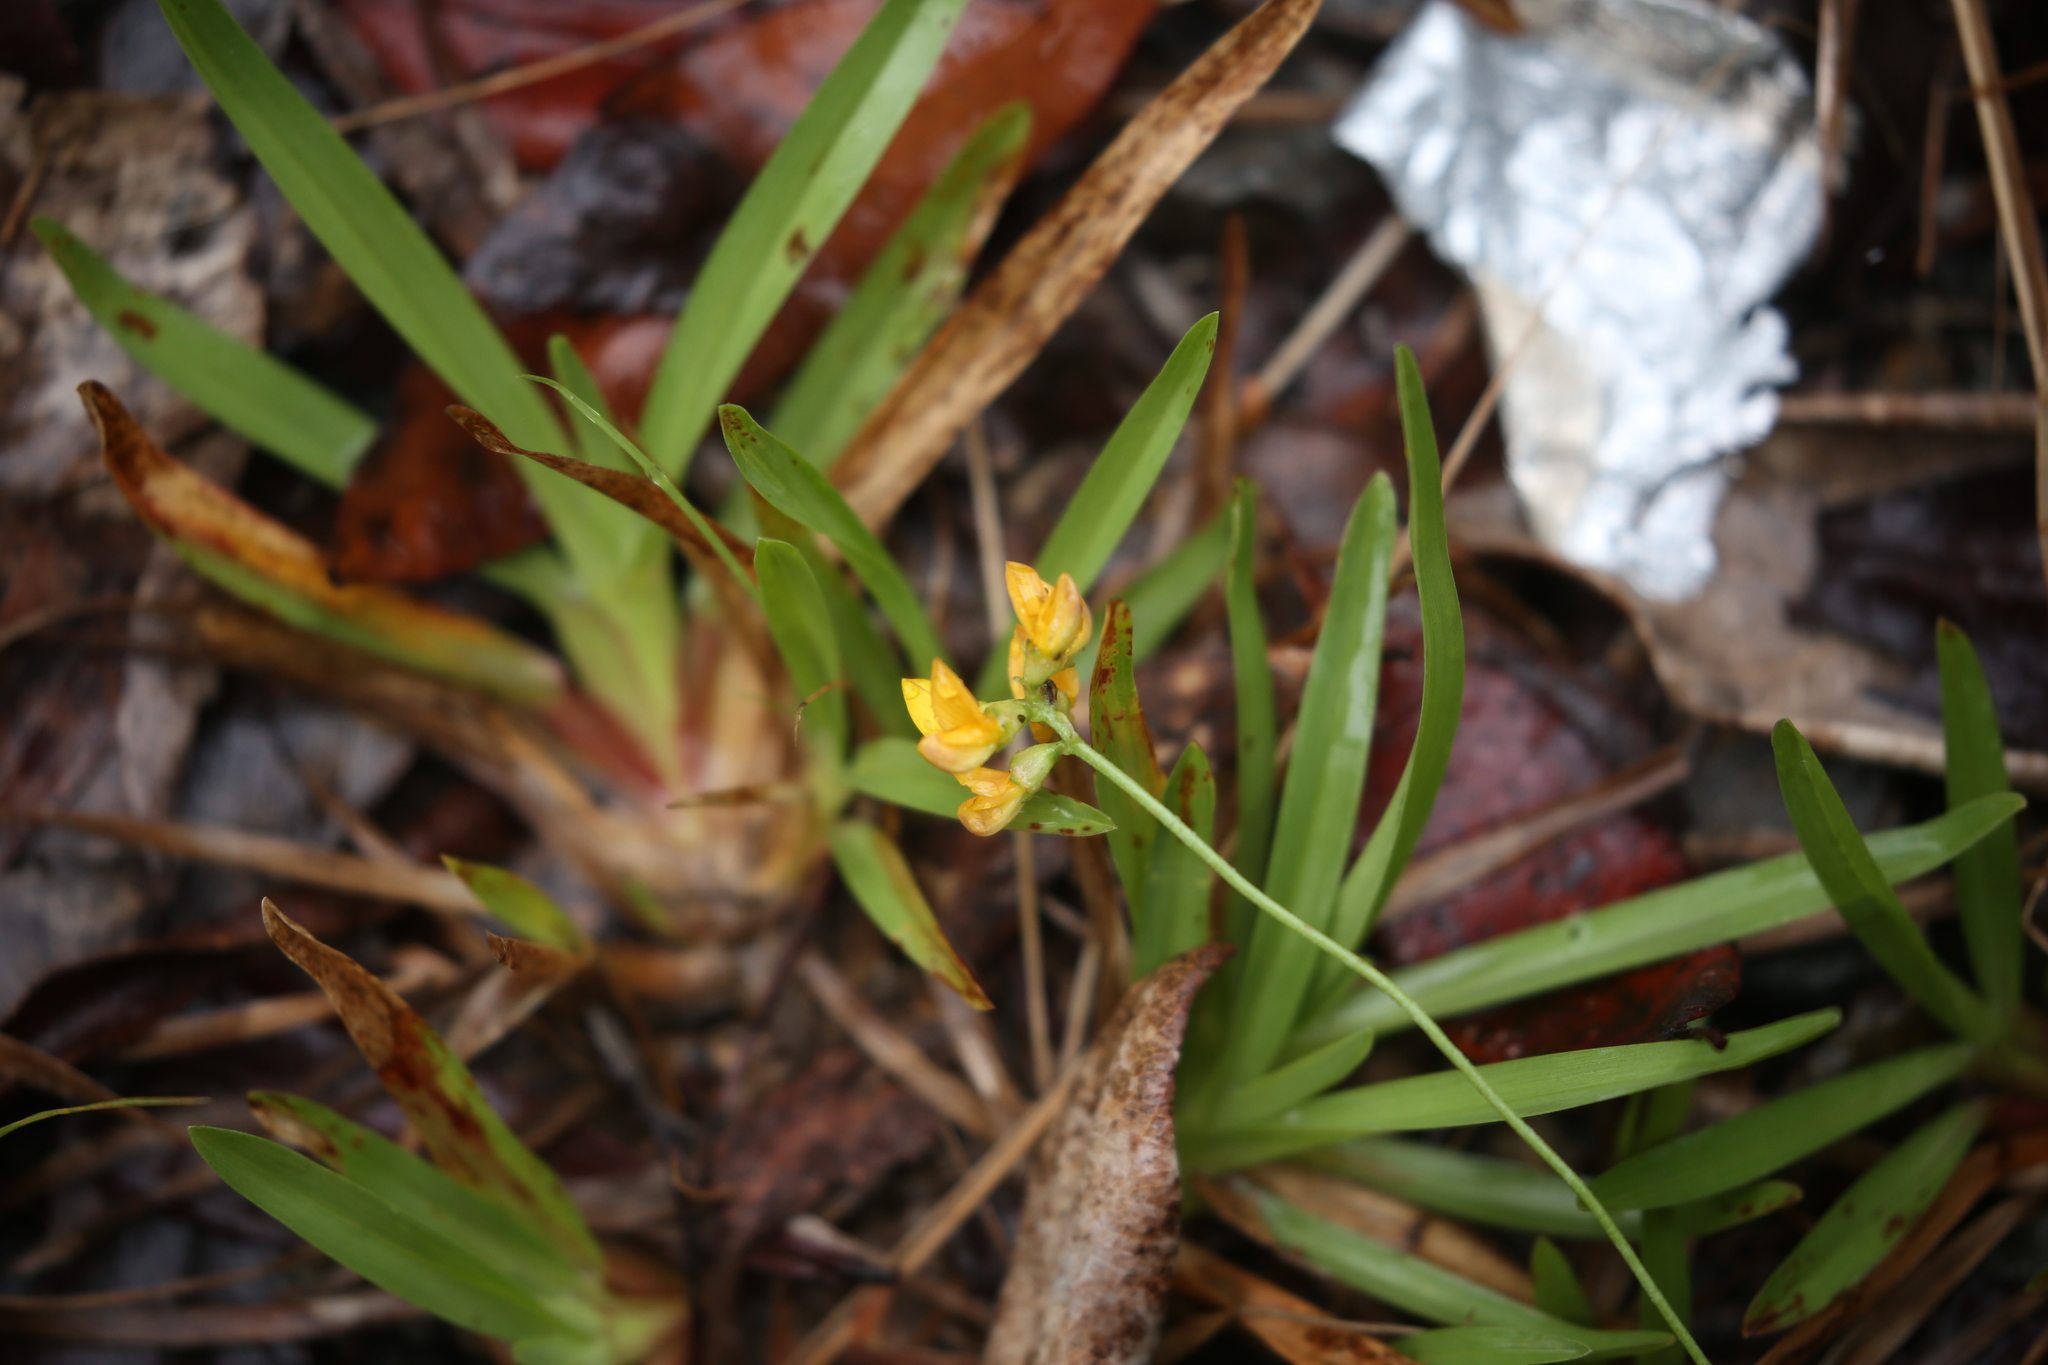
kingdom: Plantae
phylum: Tracheophyta
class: Magnoliopsida
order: Fabales
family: Fabaceae
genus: Listia
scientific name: Listia bainesii
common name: Lotononis
